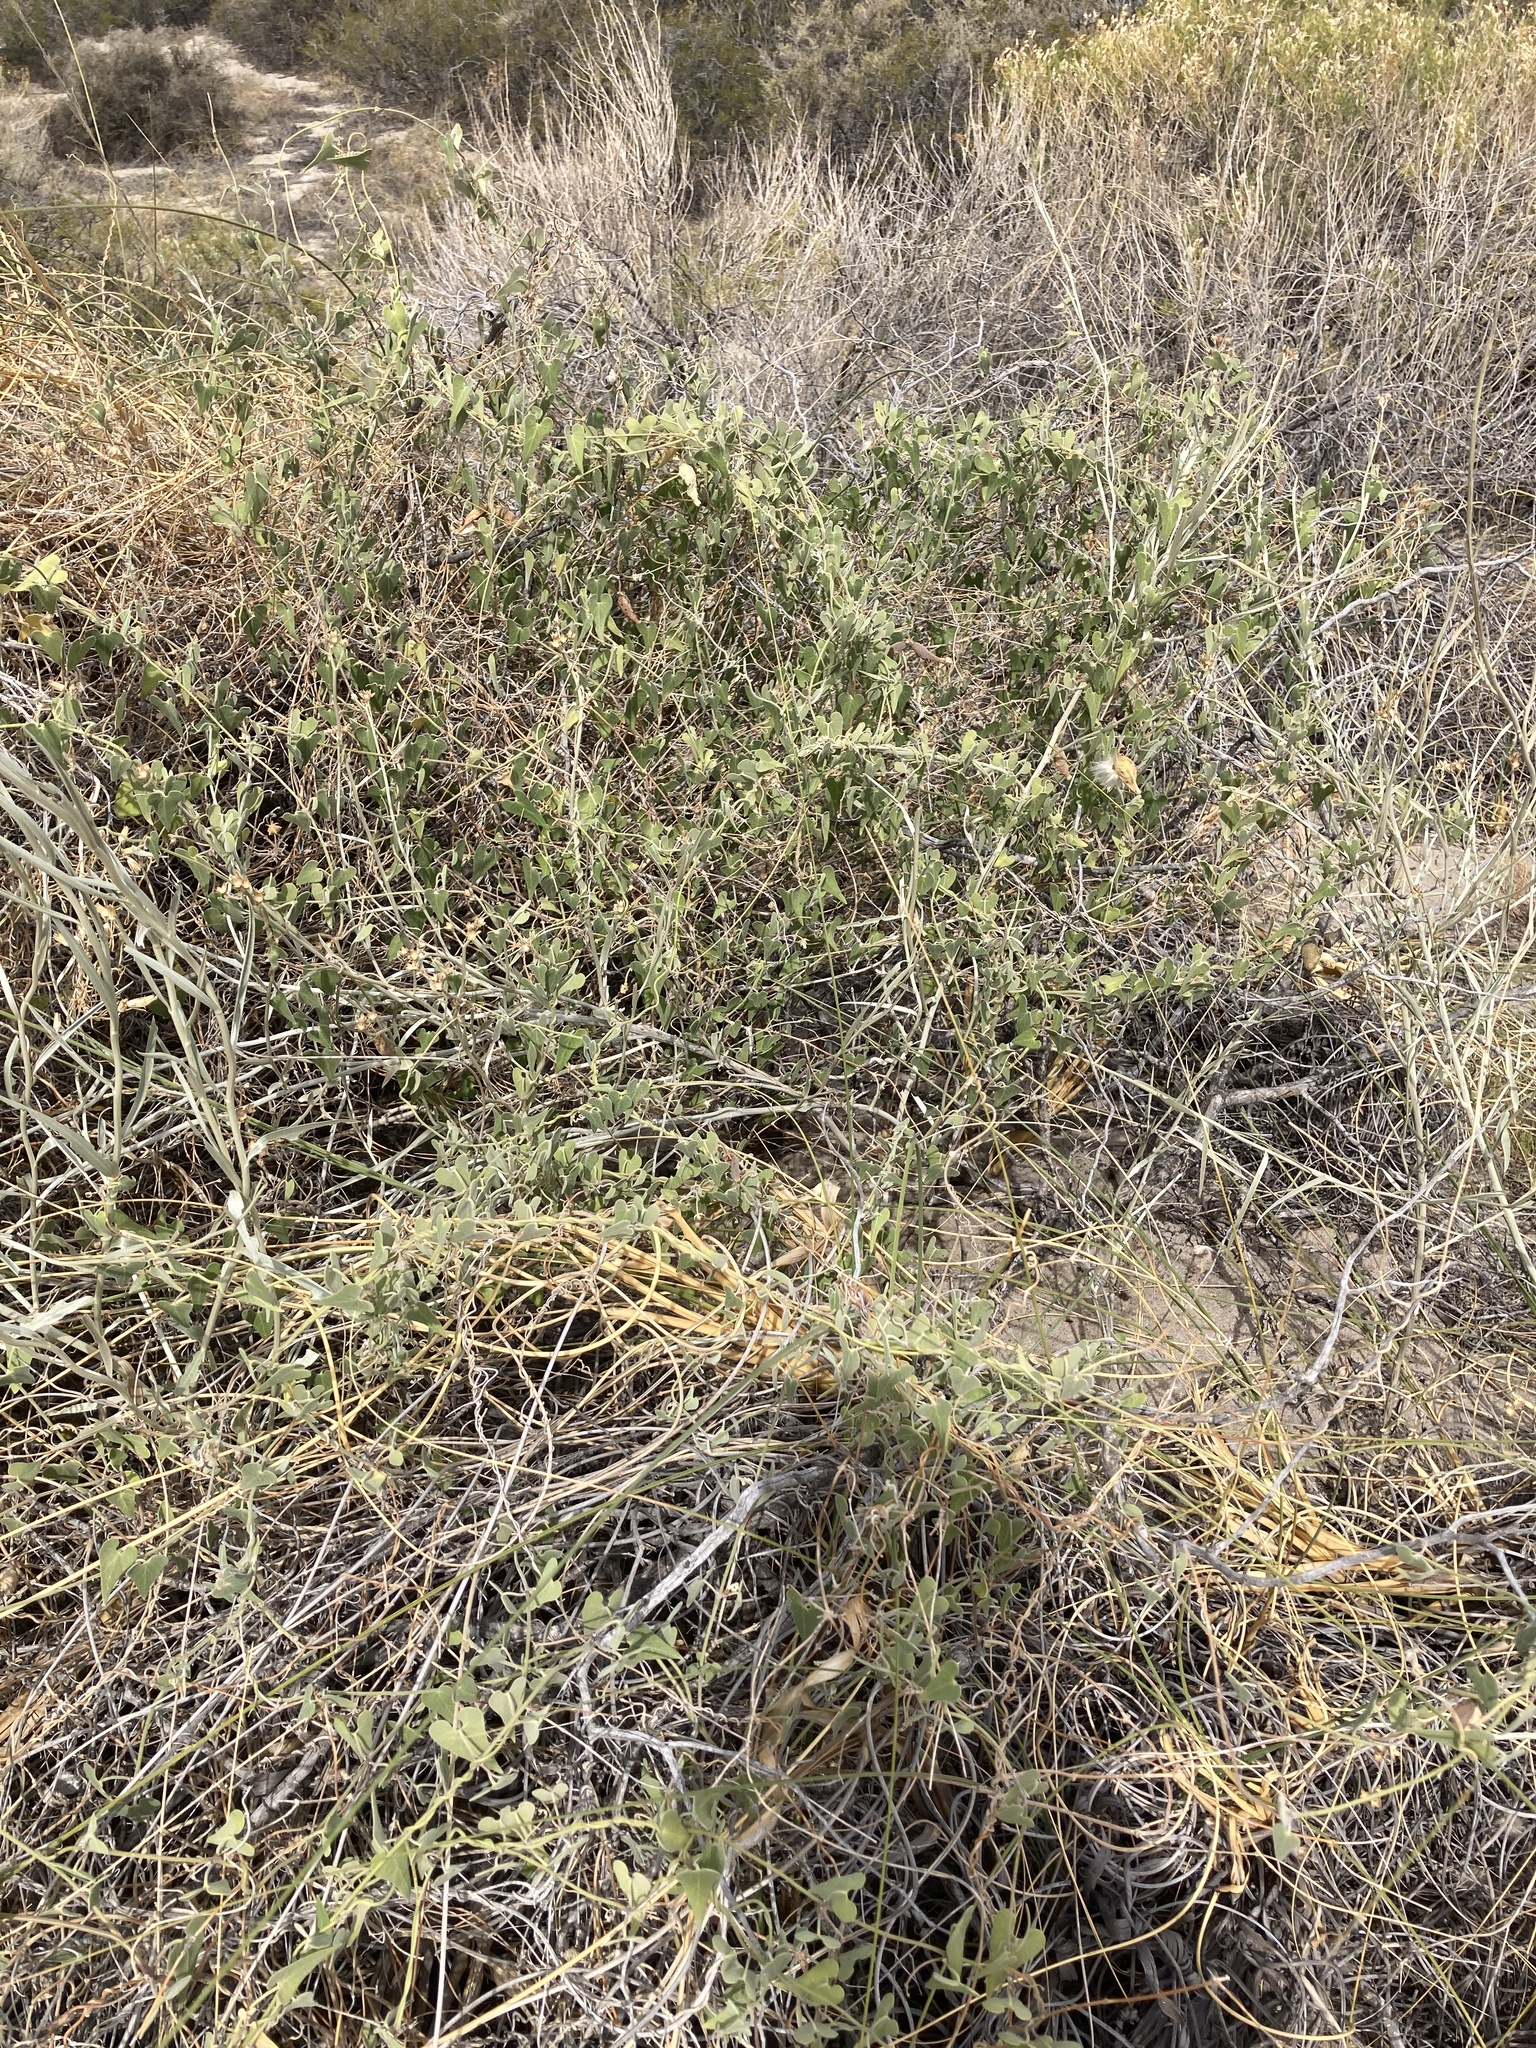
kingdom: Plantae
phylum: Tracheophyta
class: Magnoliopsida
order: Gentianales
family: Apocynaceae
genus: Philibertia
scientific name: Philibertia gilliesii
